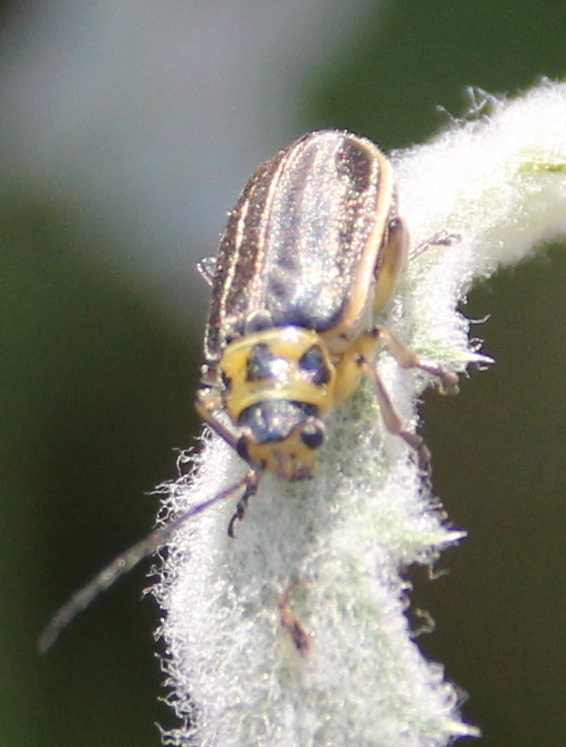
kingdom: Animalia
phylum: Arthropoda
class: Insecta
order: Coleoptera
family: Chrysomelidae
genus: Trirhabda
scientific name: Trirhabda luteocincta
